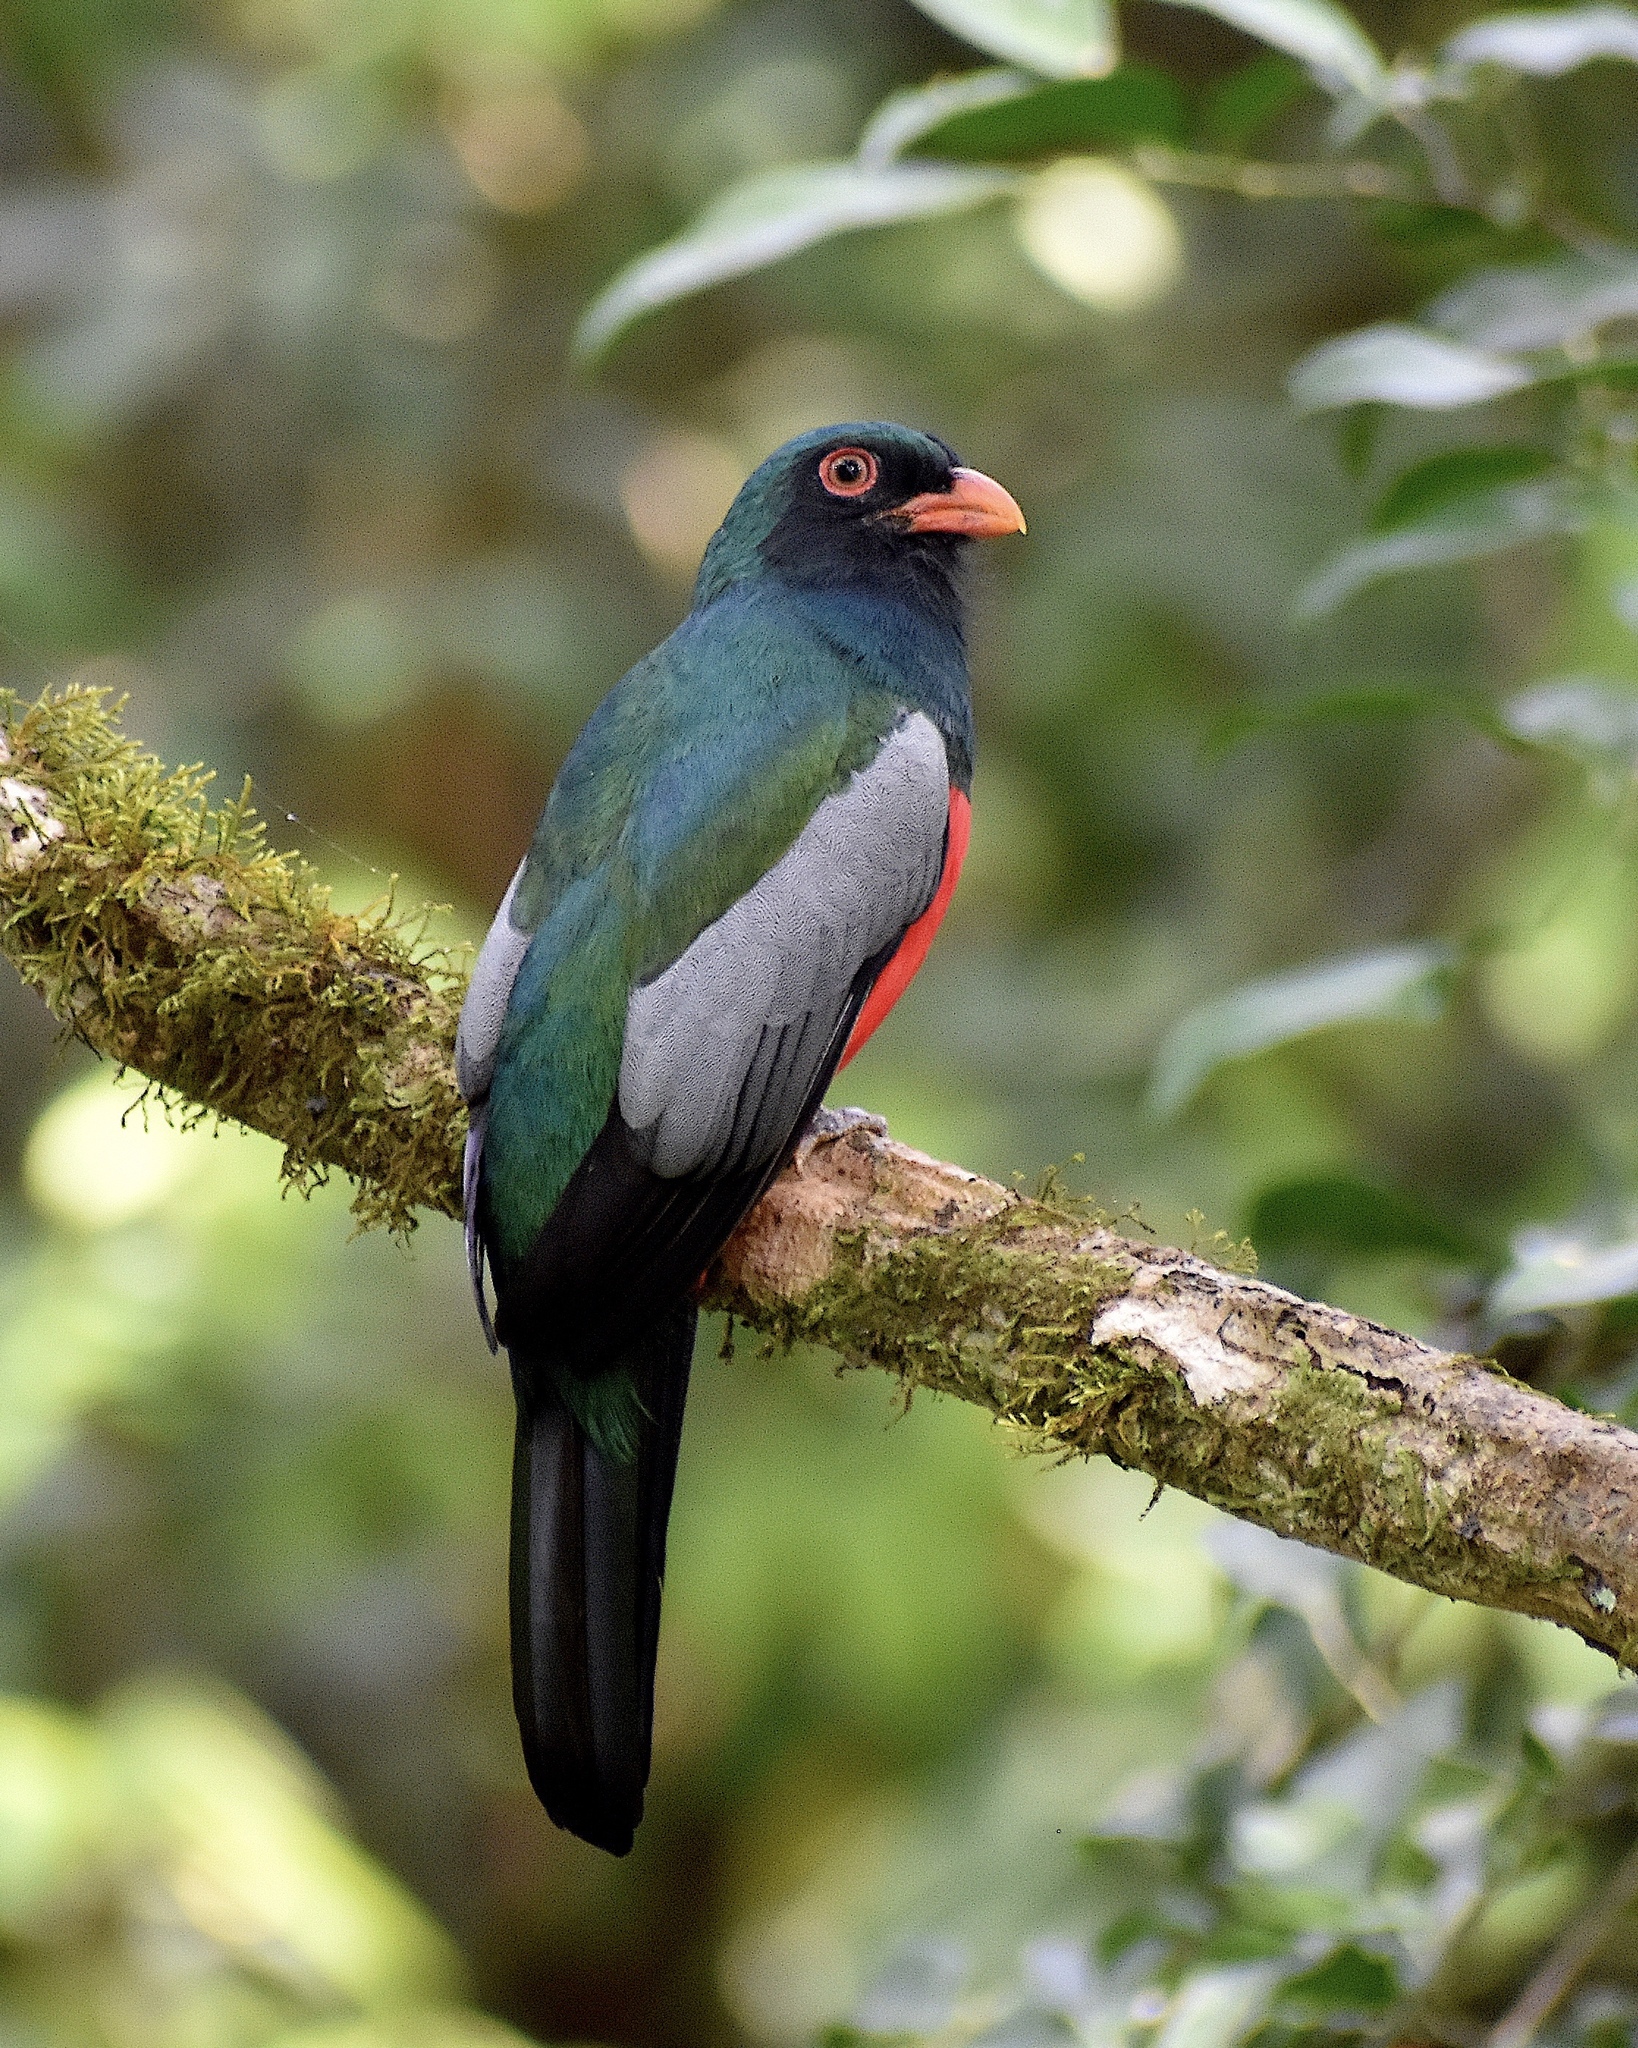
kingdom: Animalia
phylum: Chordata
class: Aves
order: Trogoniformes
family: Trogonidae
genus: Trogon
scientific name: Trogon massena
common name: Slaty-tailed trogon
